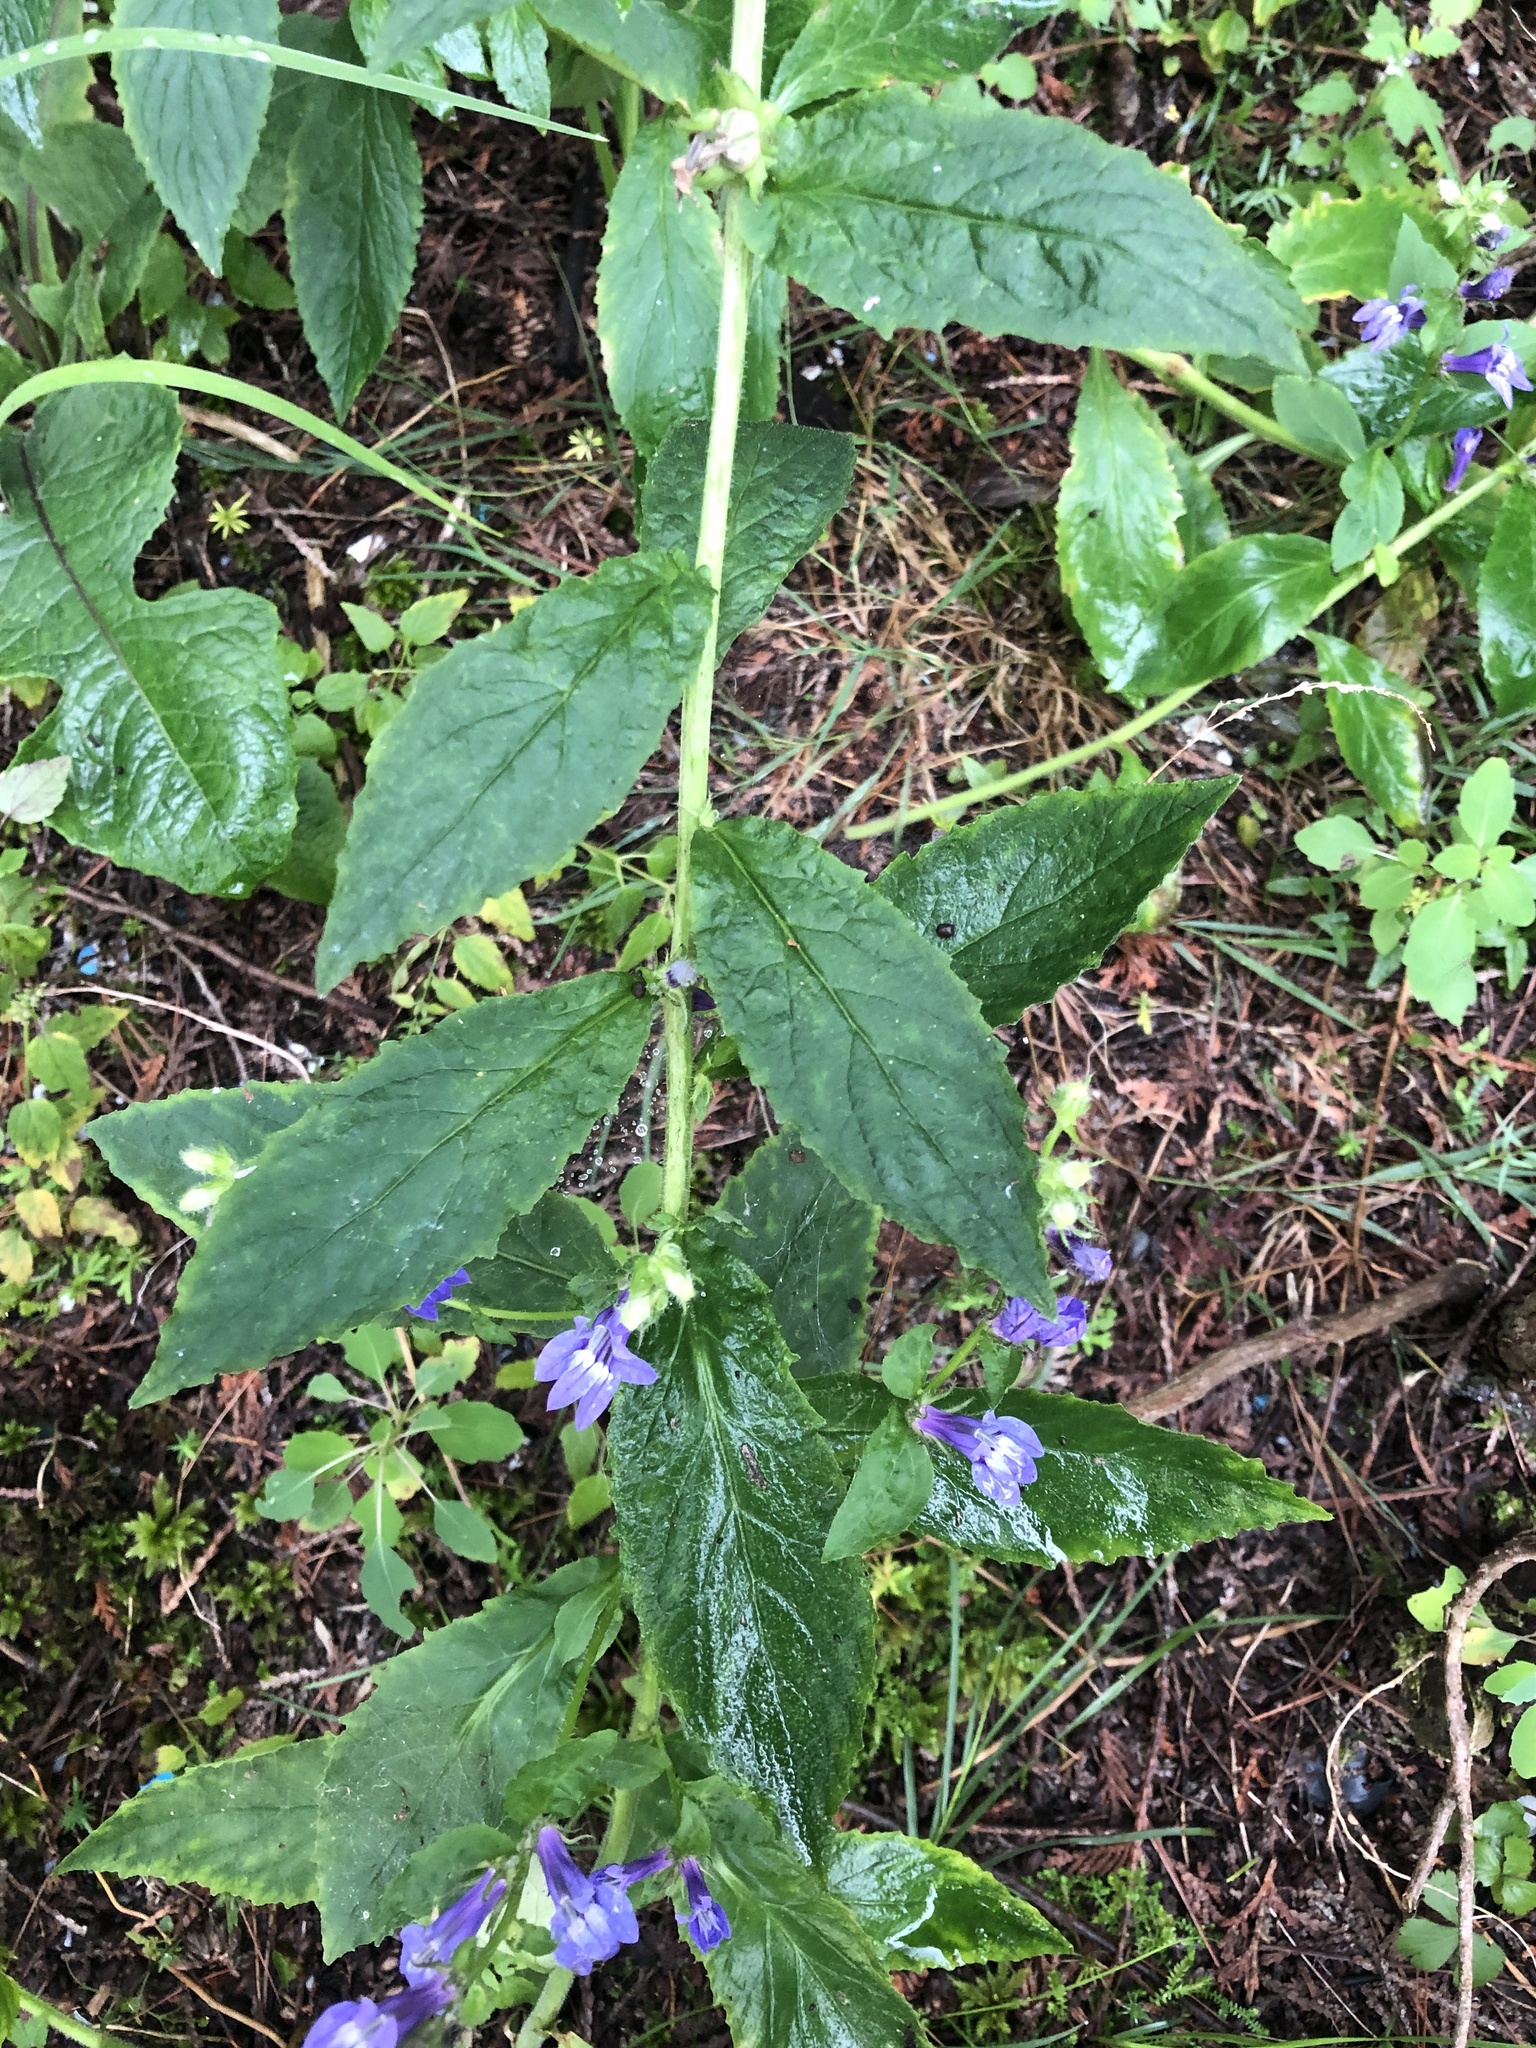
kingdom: Plantae
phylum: Tracheophyta
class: Magnoliopsida
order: Asterales
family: Campanulaceae
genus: Lobelia
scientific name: Lobelia siphilitica
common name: Great lobelia
